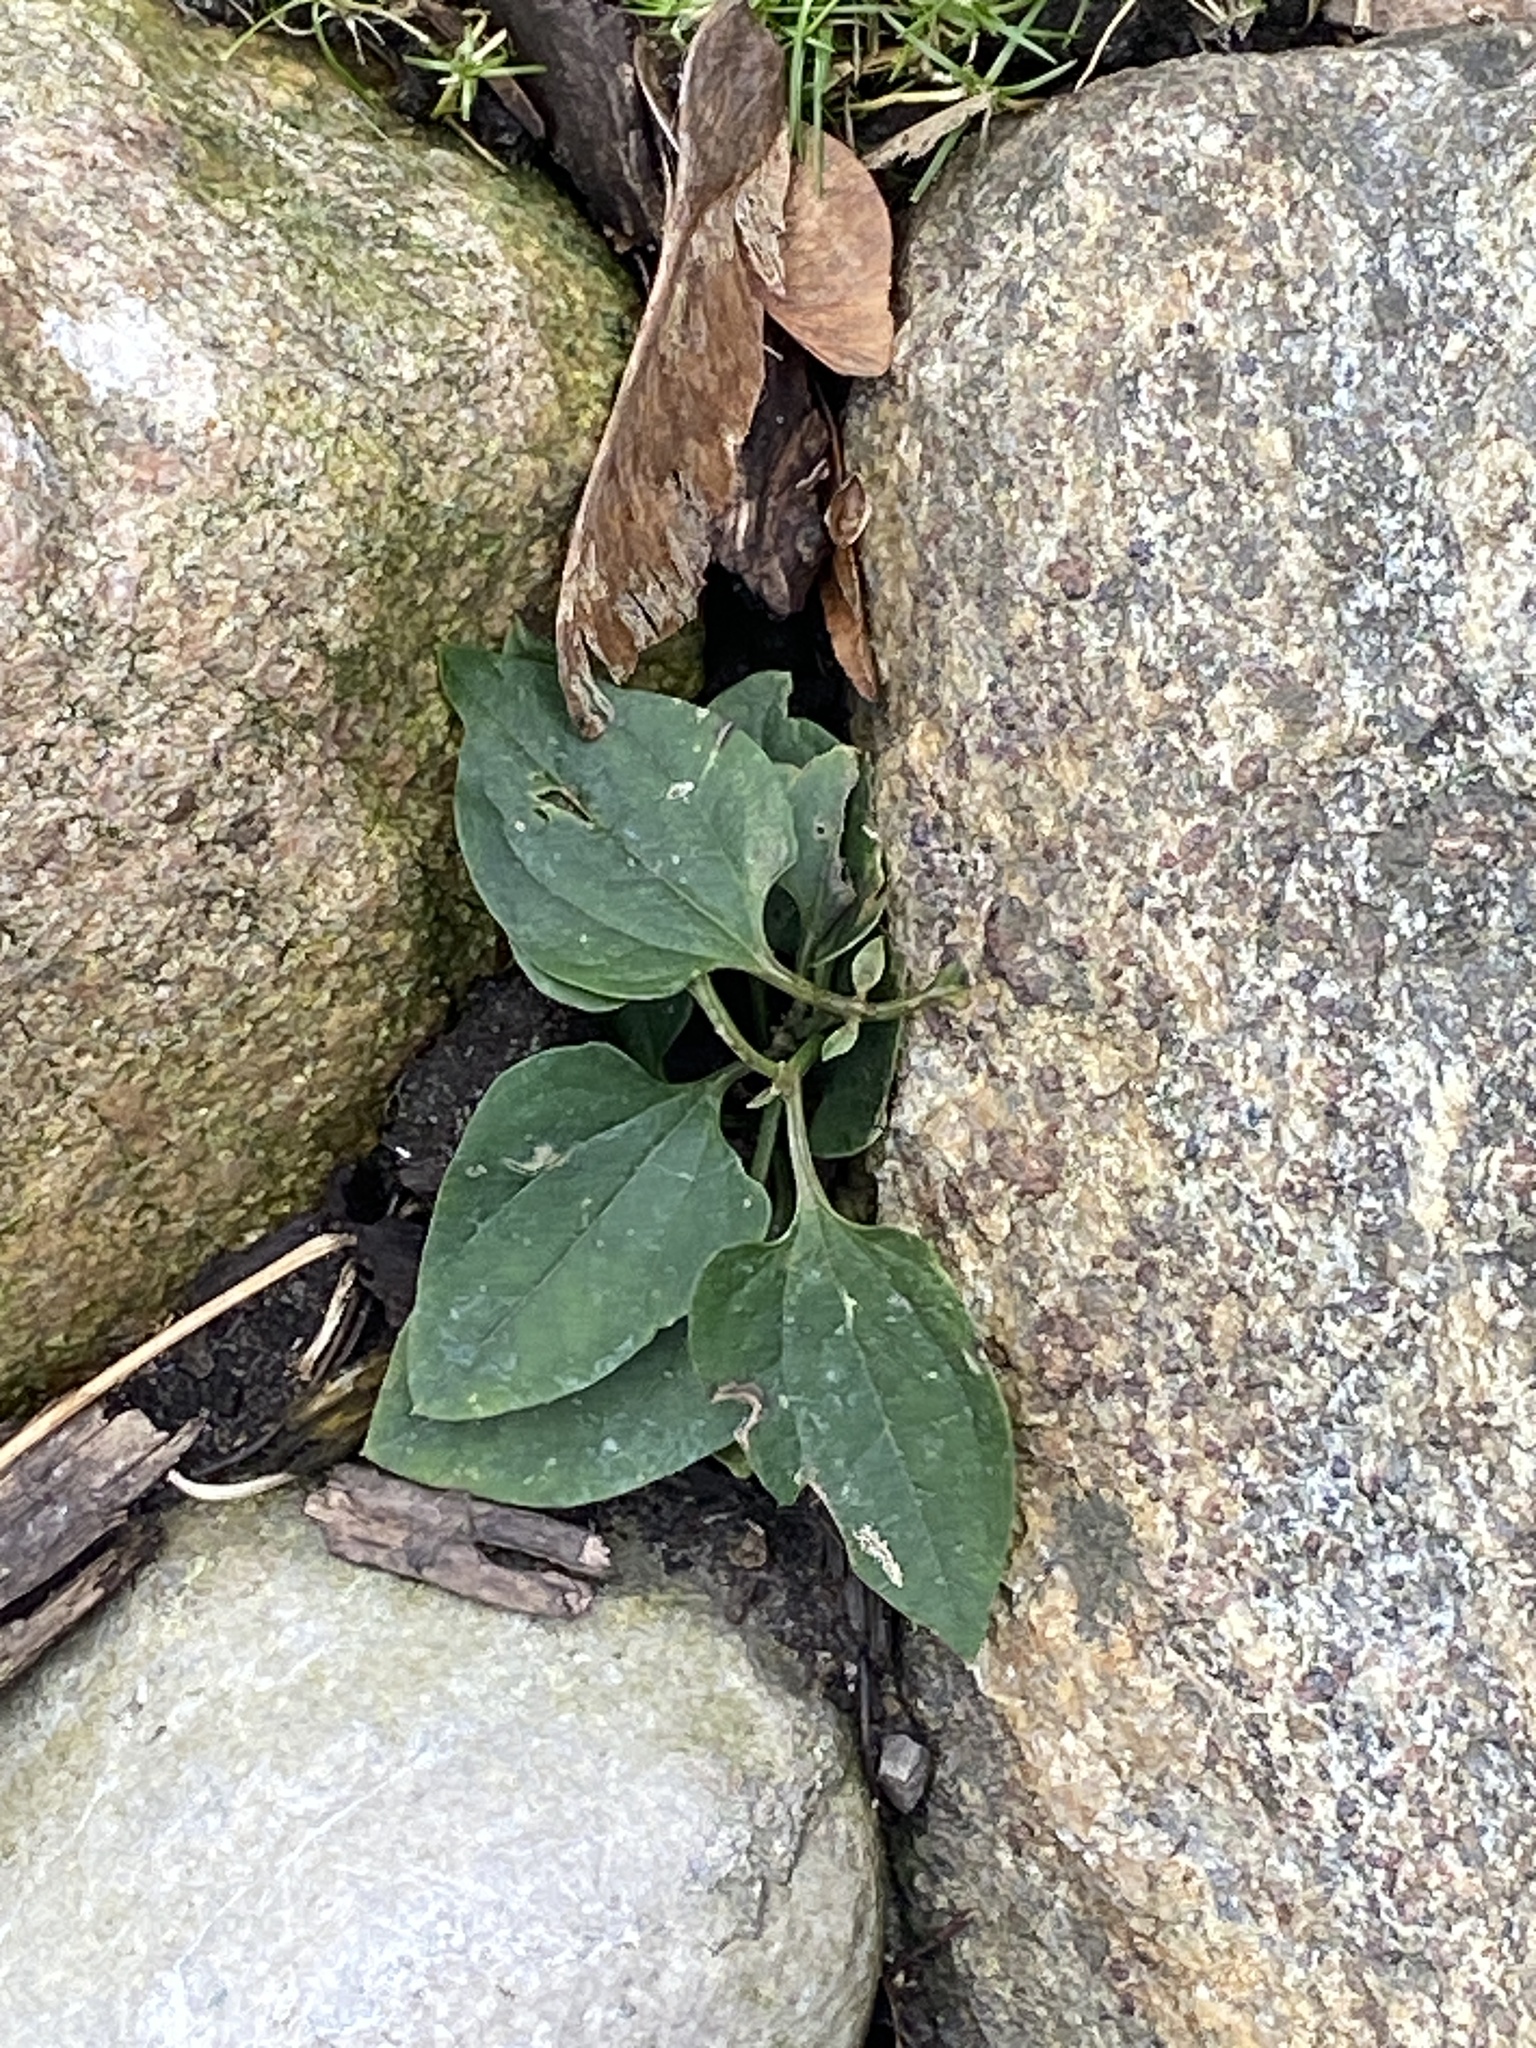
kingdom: Plantae
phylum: Tracheophyta
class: Magnoliopsida
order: Ranunculales
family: Ranunculaceae
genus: Clematis
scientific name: Clematis terniflora
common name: Sweet autumn clematis
